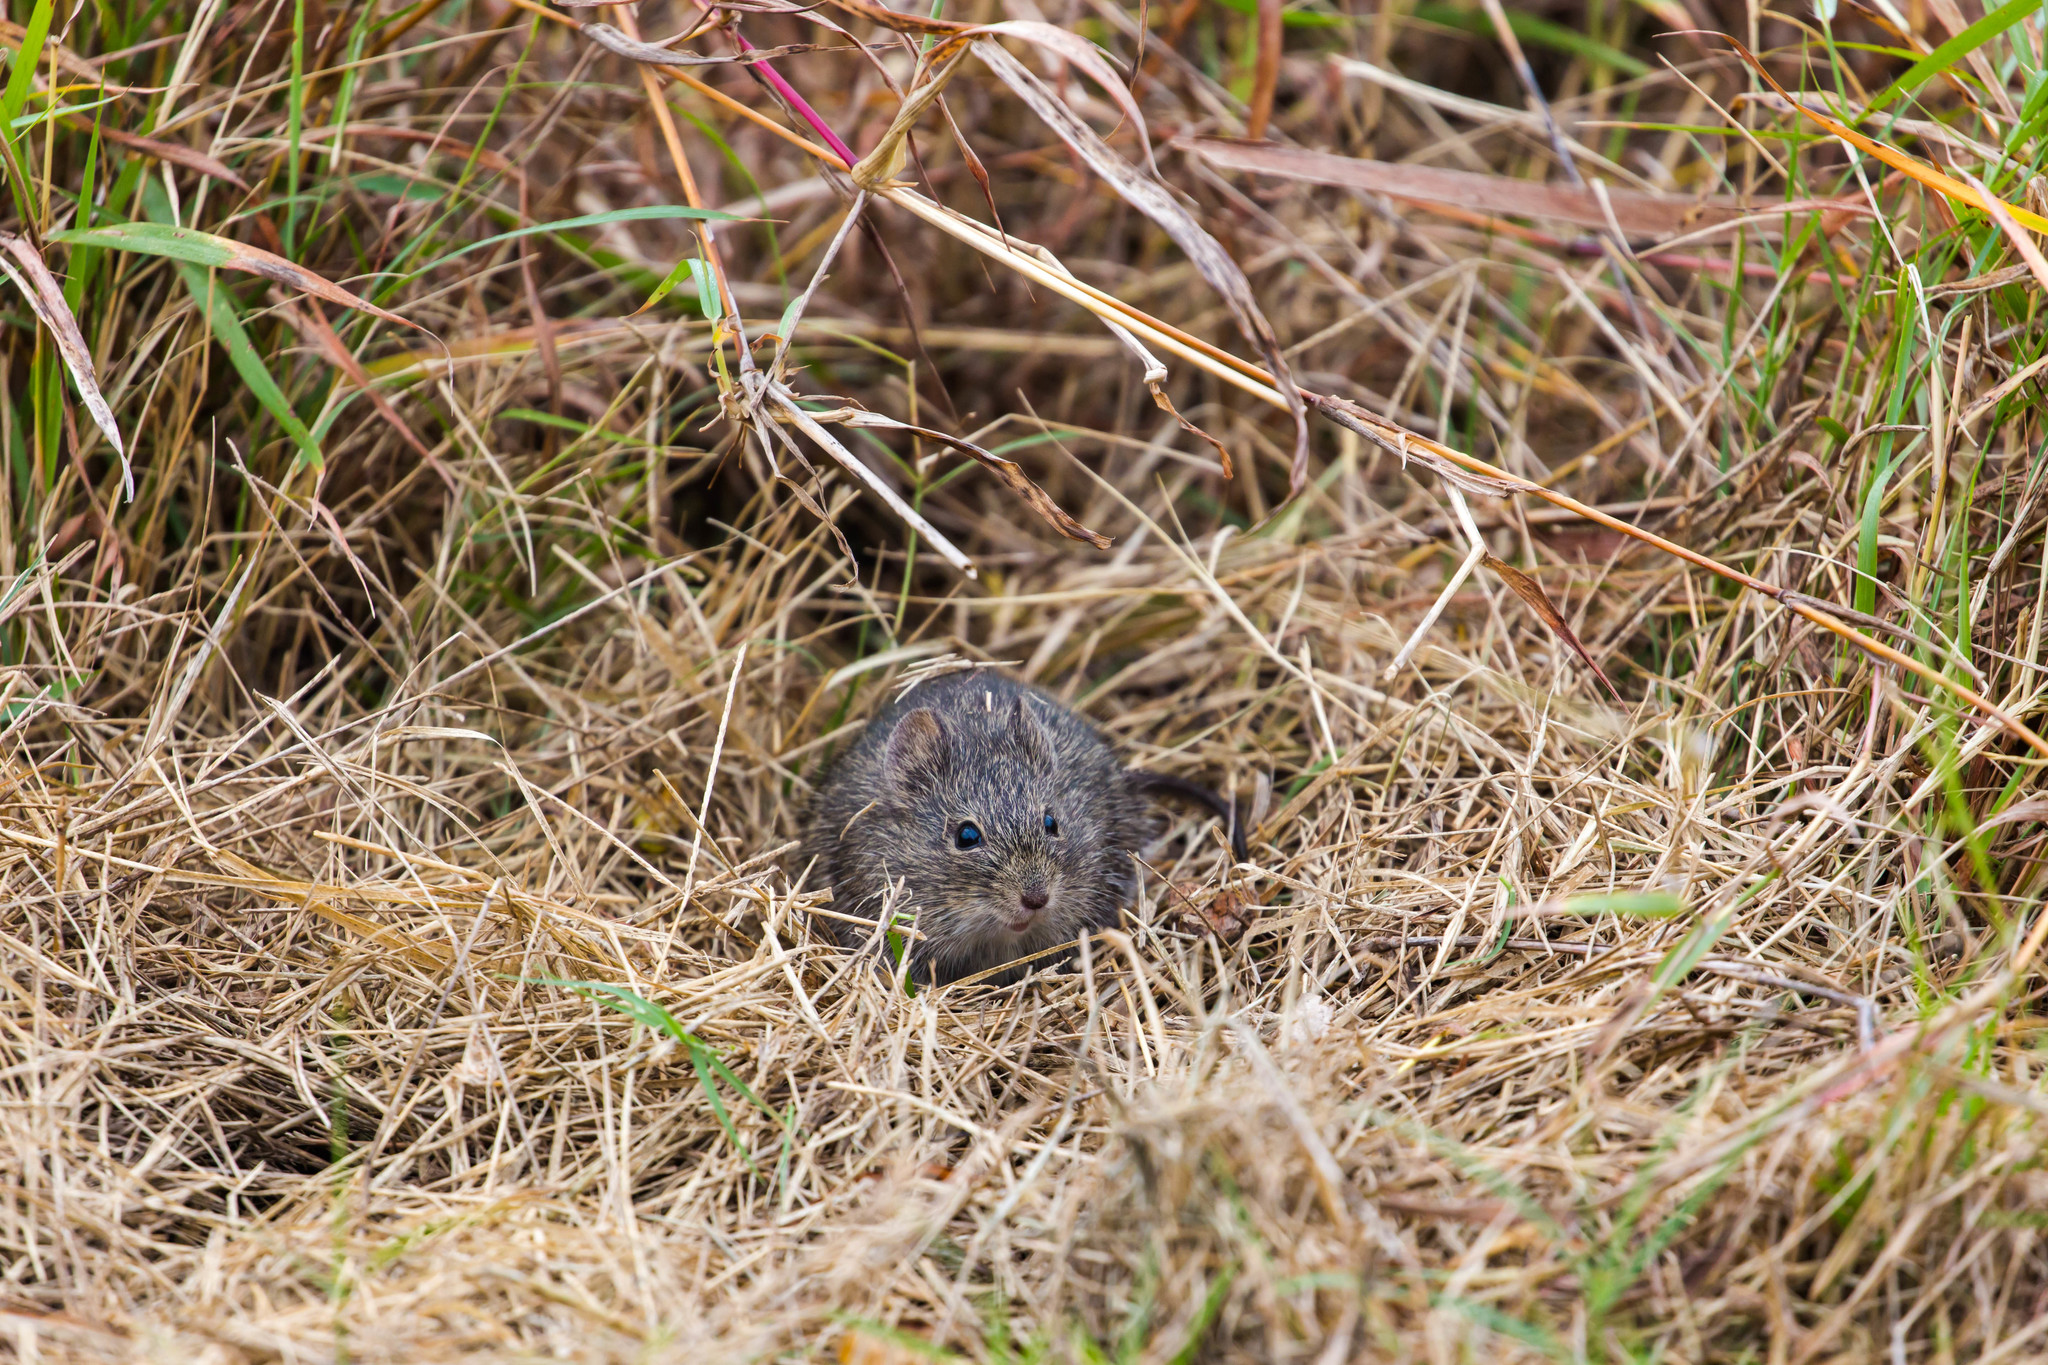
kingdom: Animalia
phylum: Chordata
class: Mammalia
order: Rodentia
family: Cricetidae
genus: Sigmodon
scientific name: Sigmodon hispidus
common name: Hispid cotton rat
